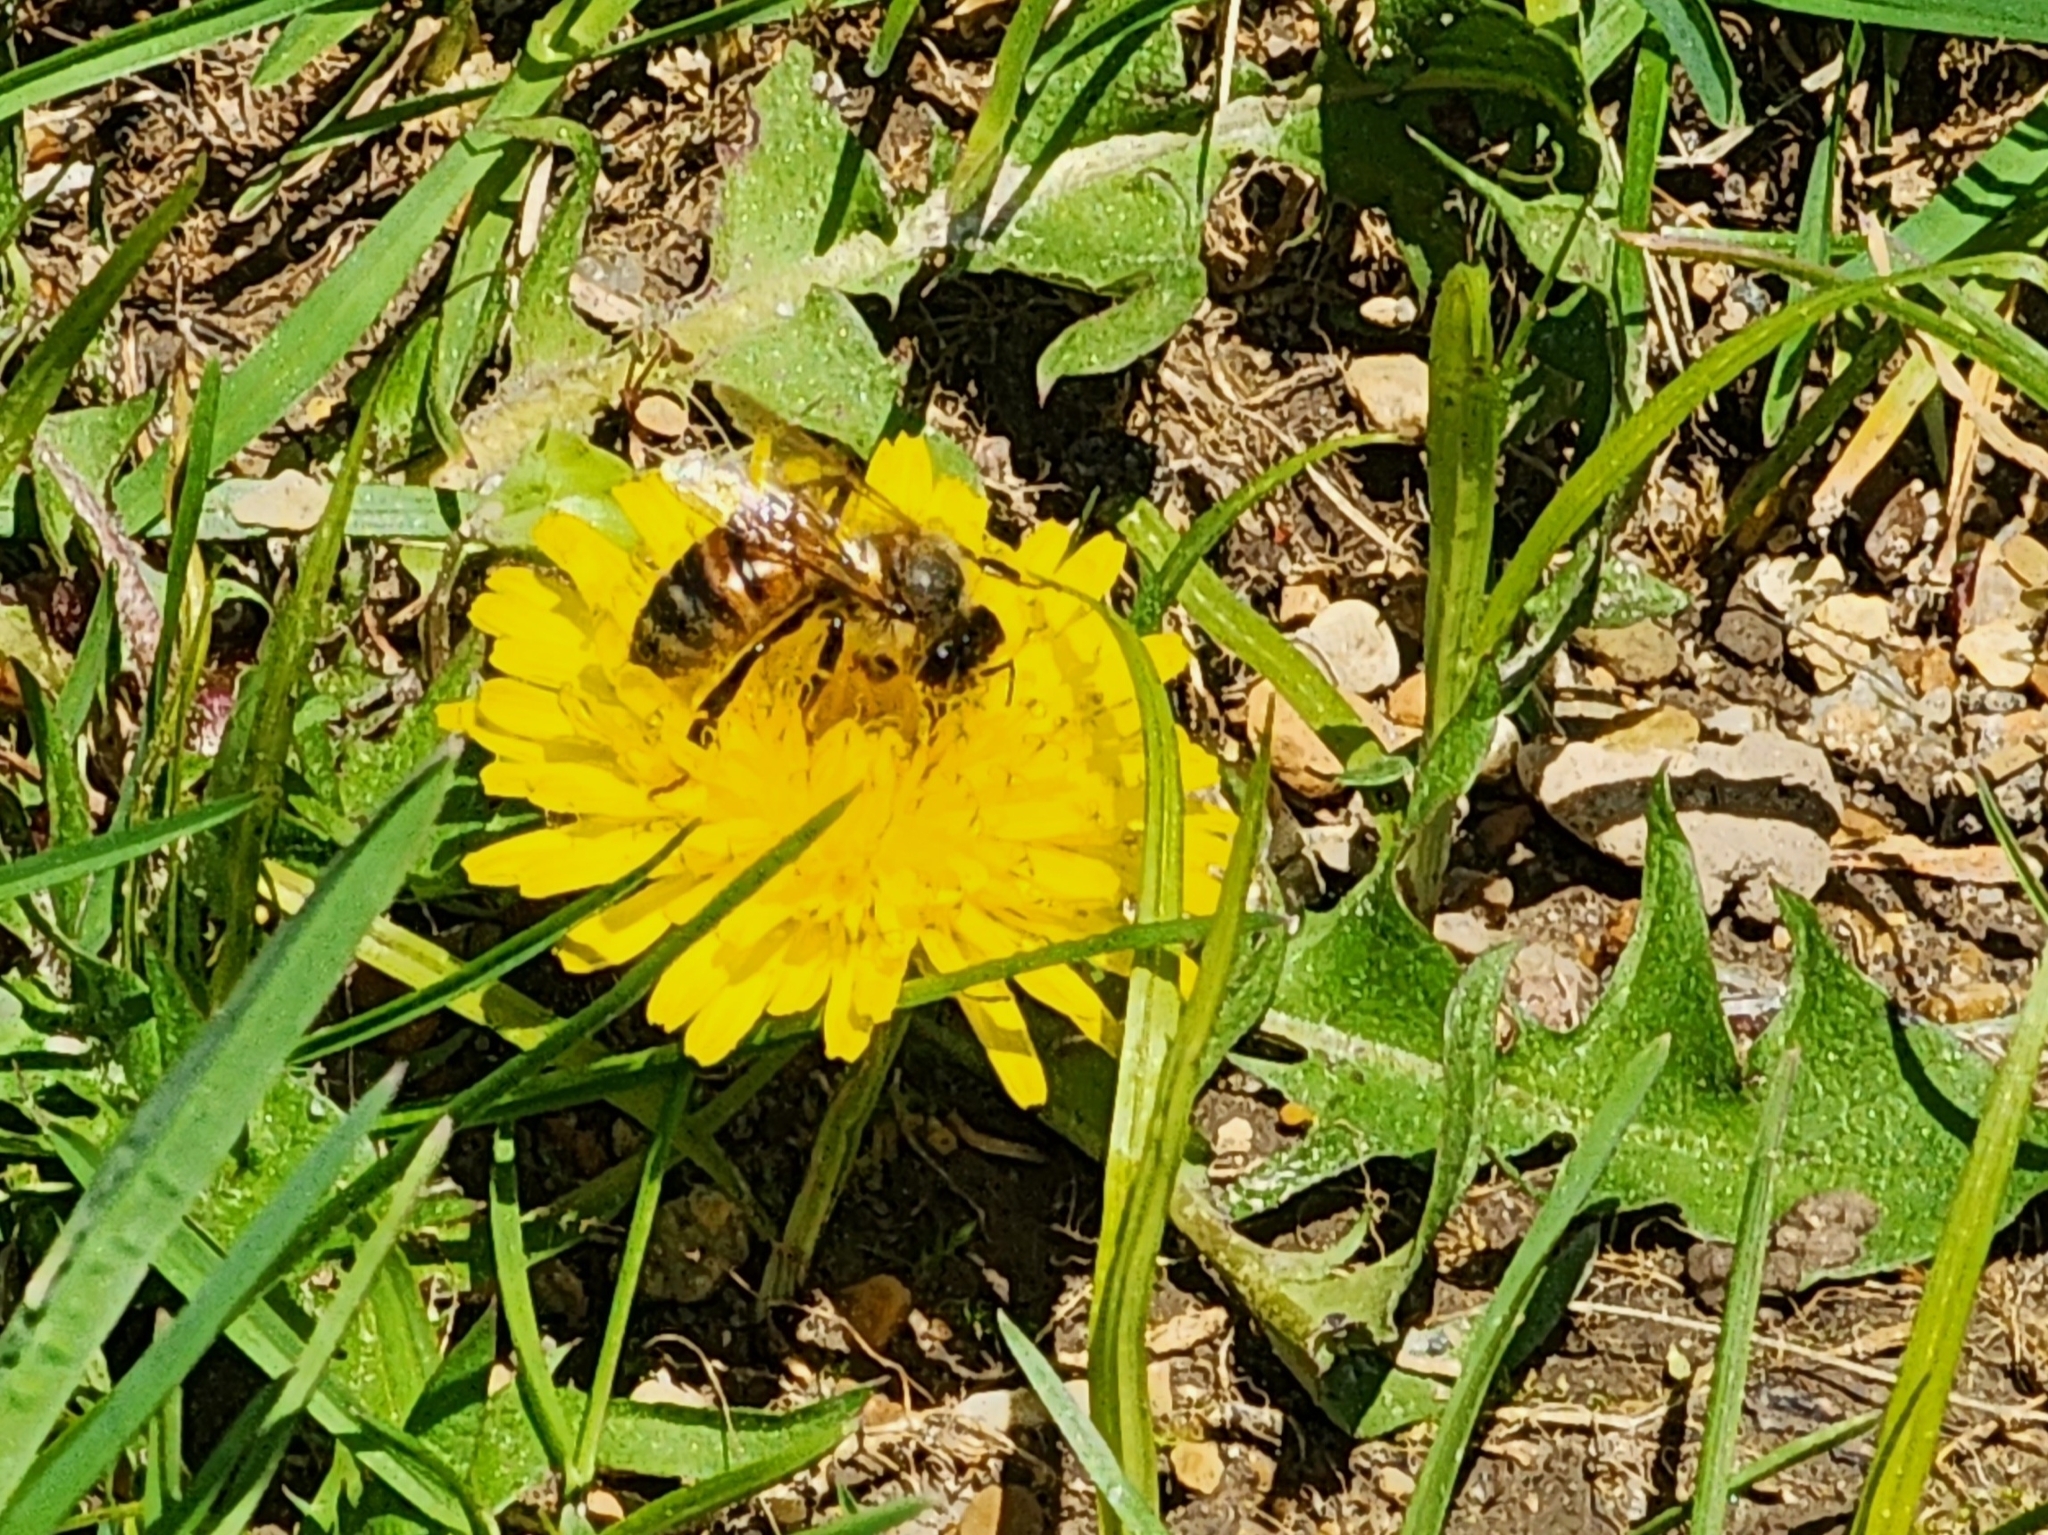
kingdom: Animalia
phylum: Arthropoda
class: Insecta
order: Hymenoptera
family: Apidae
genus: Apis
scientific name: Apis mellifera
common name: Honey bee
